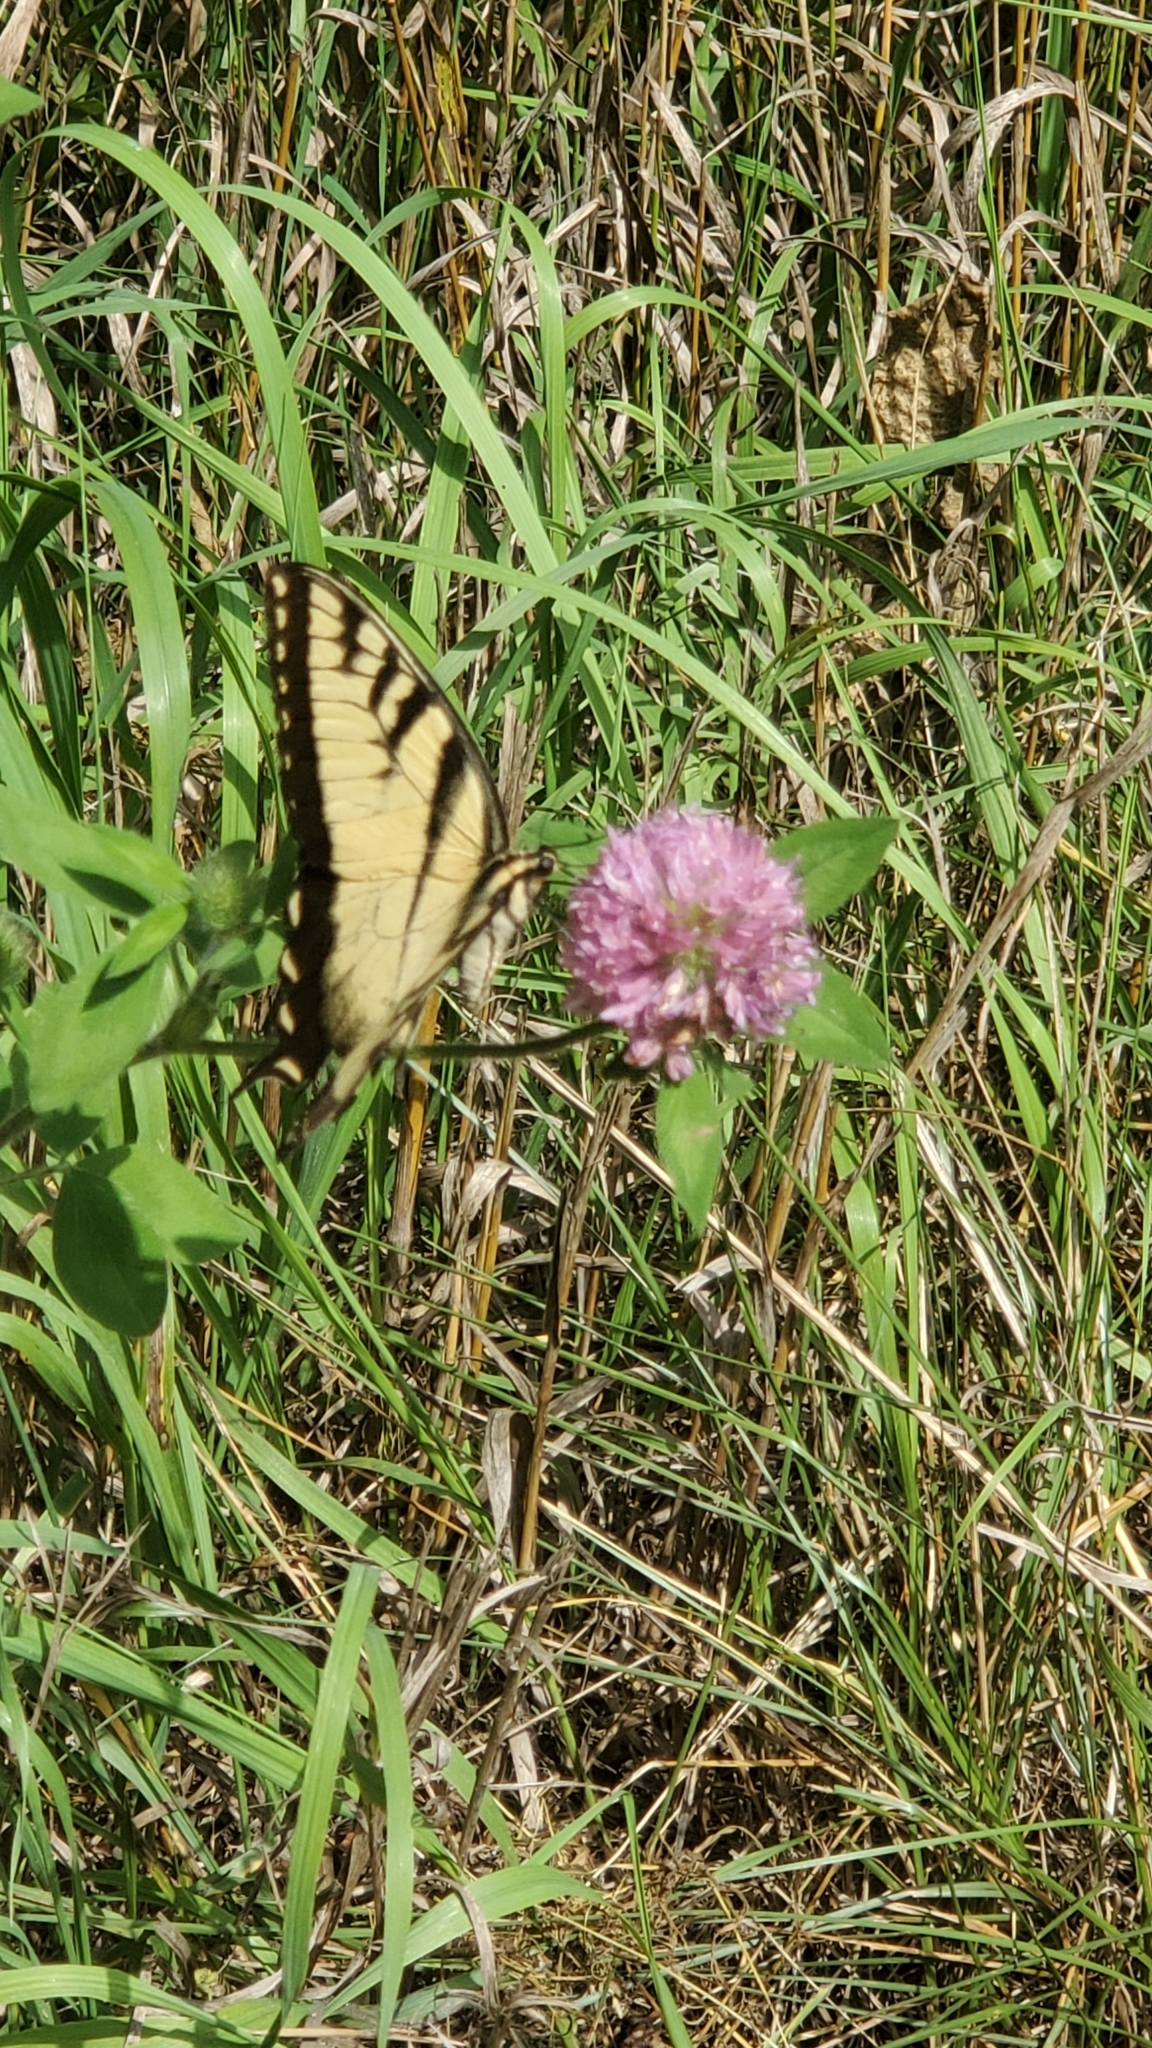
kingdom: Animalia
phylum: Arthropoda
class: Insecta
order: Lepidoptera
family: Papilionidae
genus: Papilio
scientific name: Papilio glaucus
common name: Tiger swallowtail
